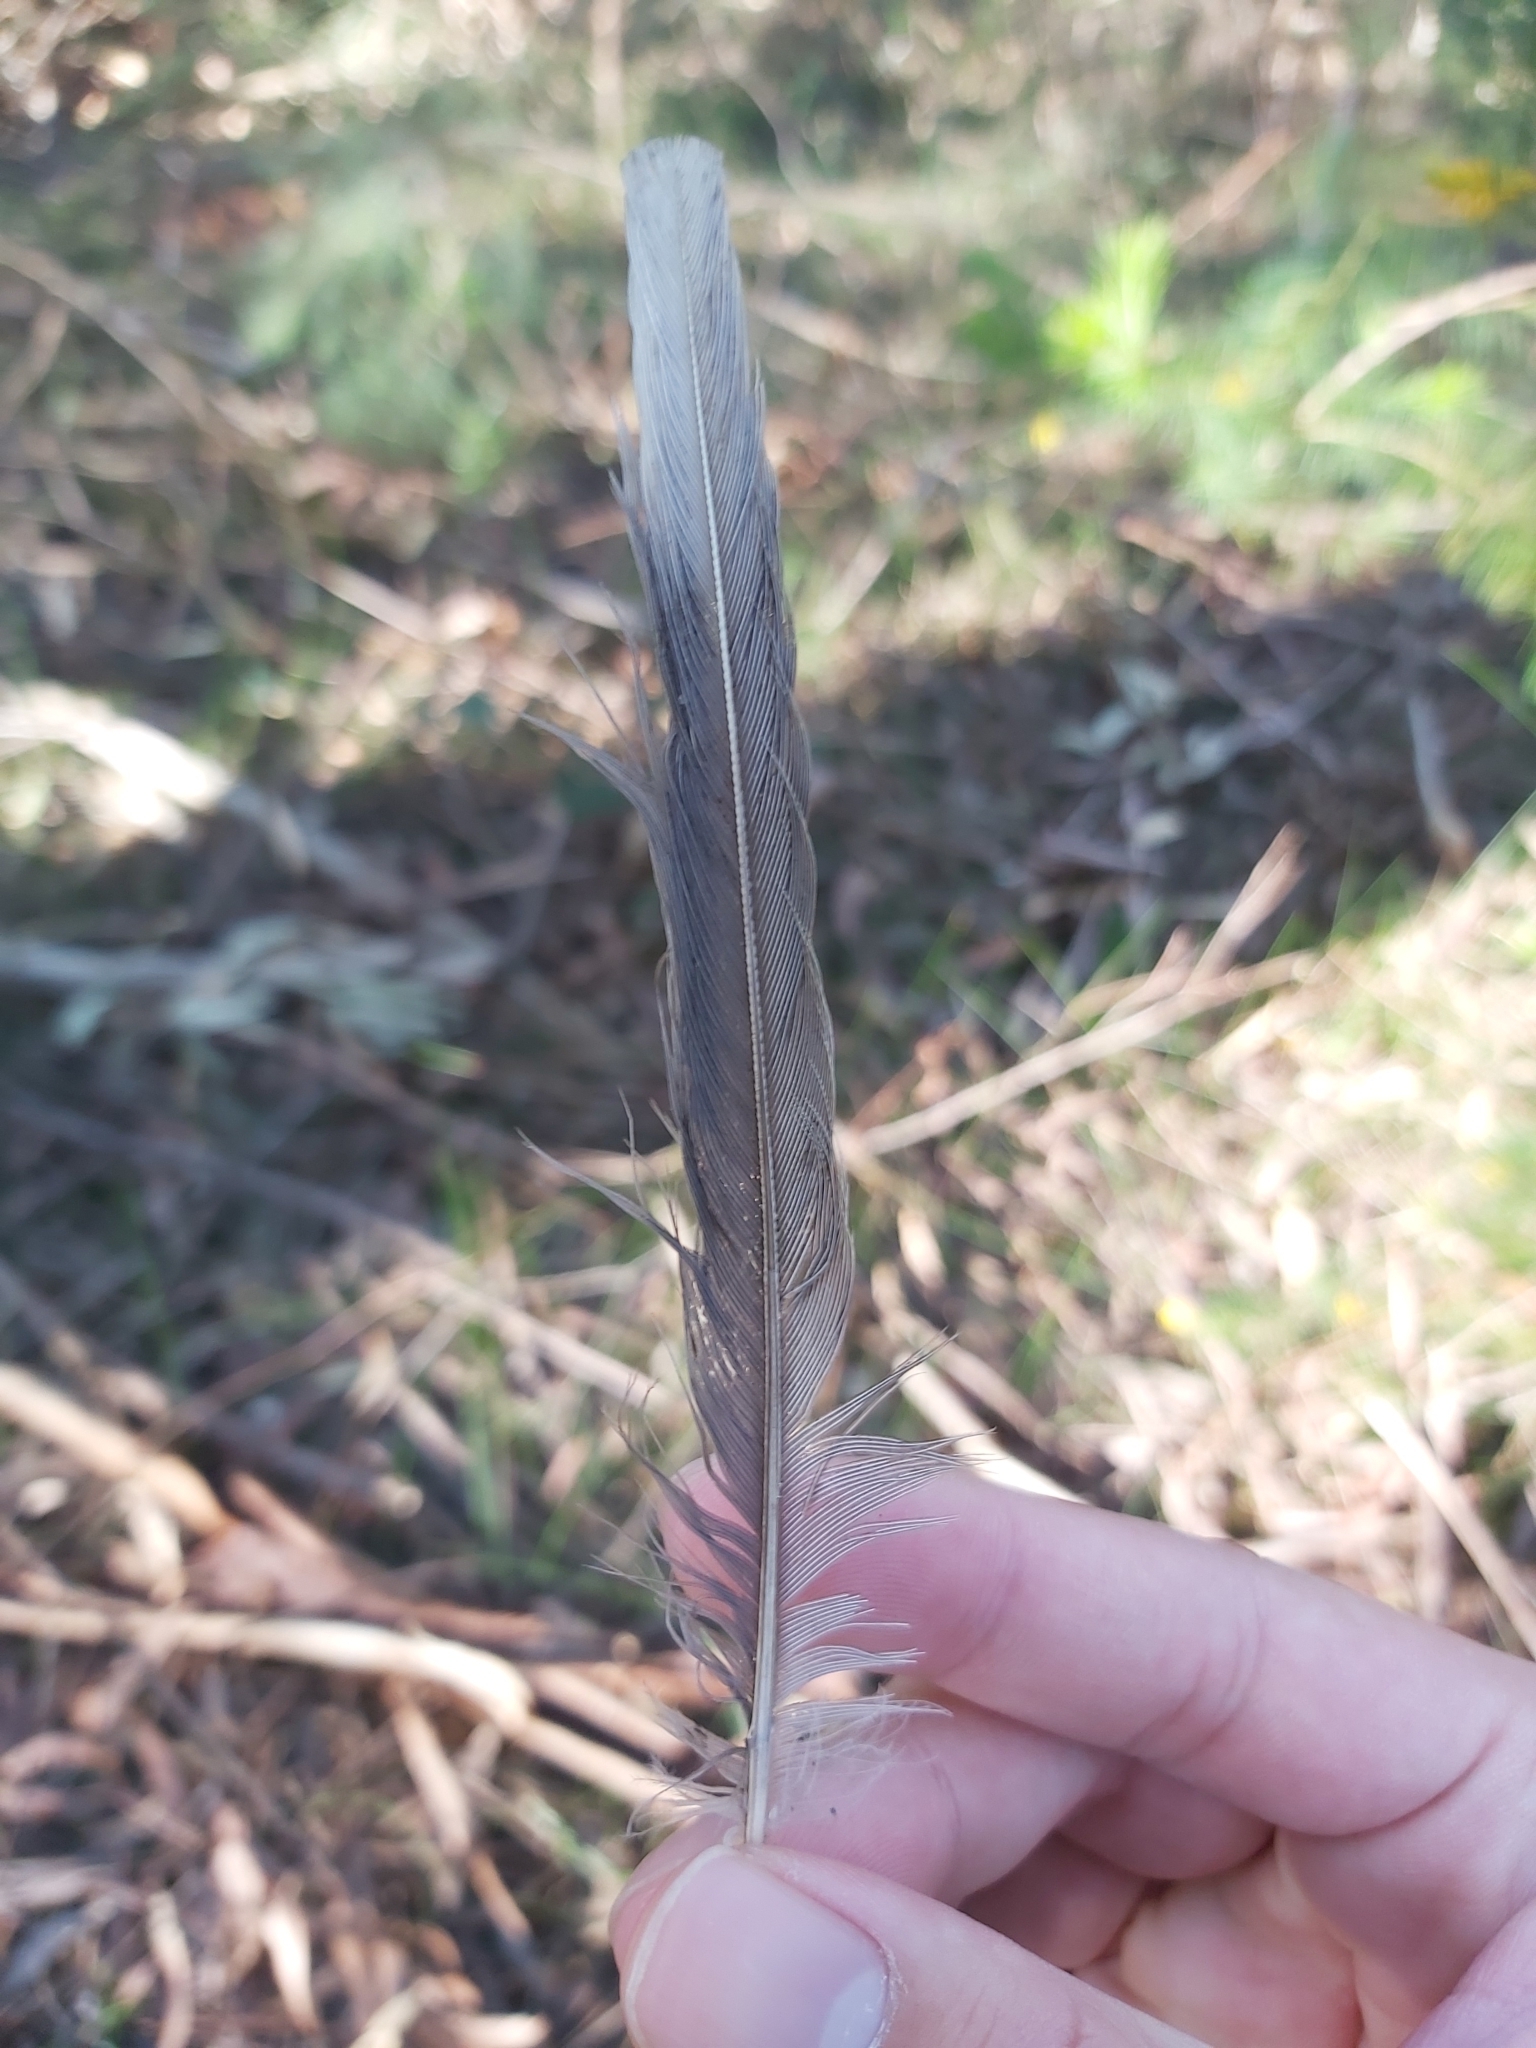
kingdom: Animalia
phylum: Chordata
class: Aves
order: Passeriformes
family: Meliphagidae
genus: Manorina
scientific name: Manorina melanocephala
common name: Noisy miner
